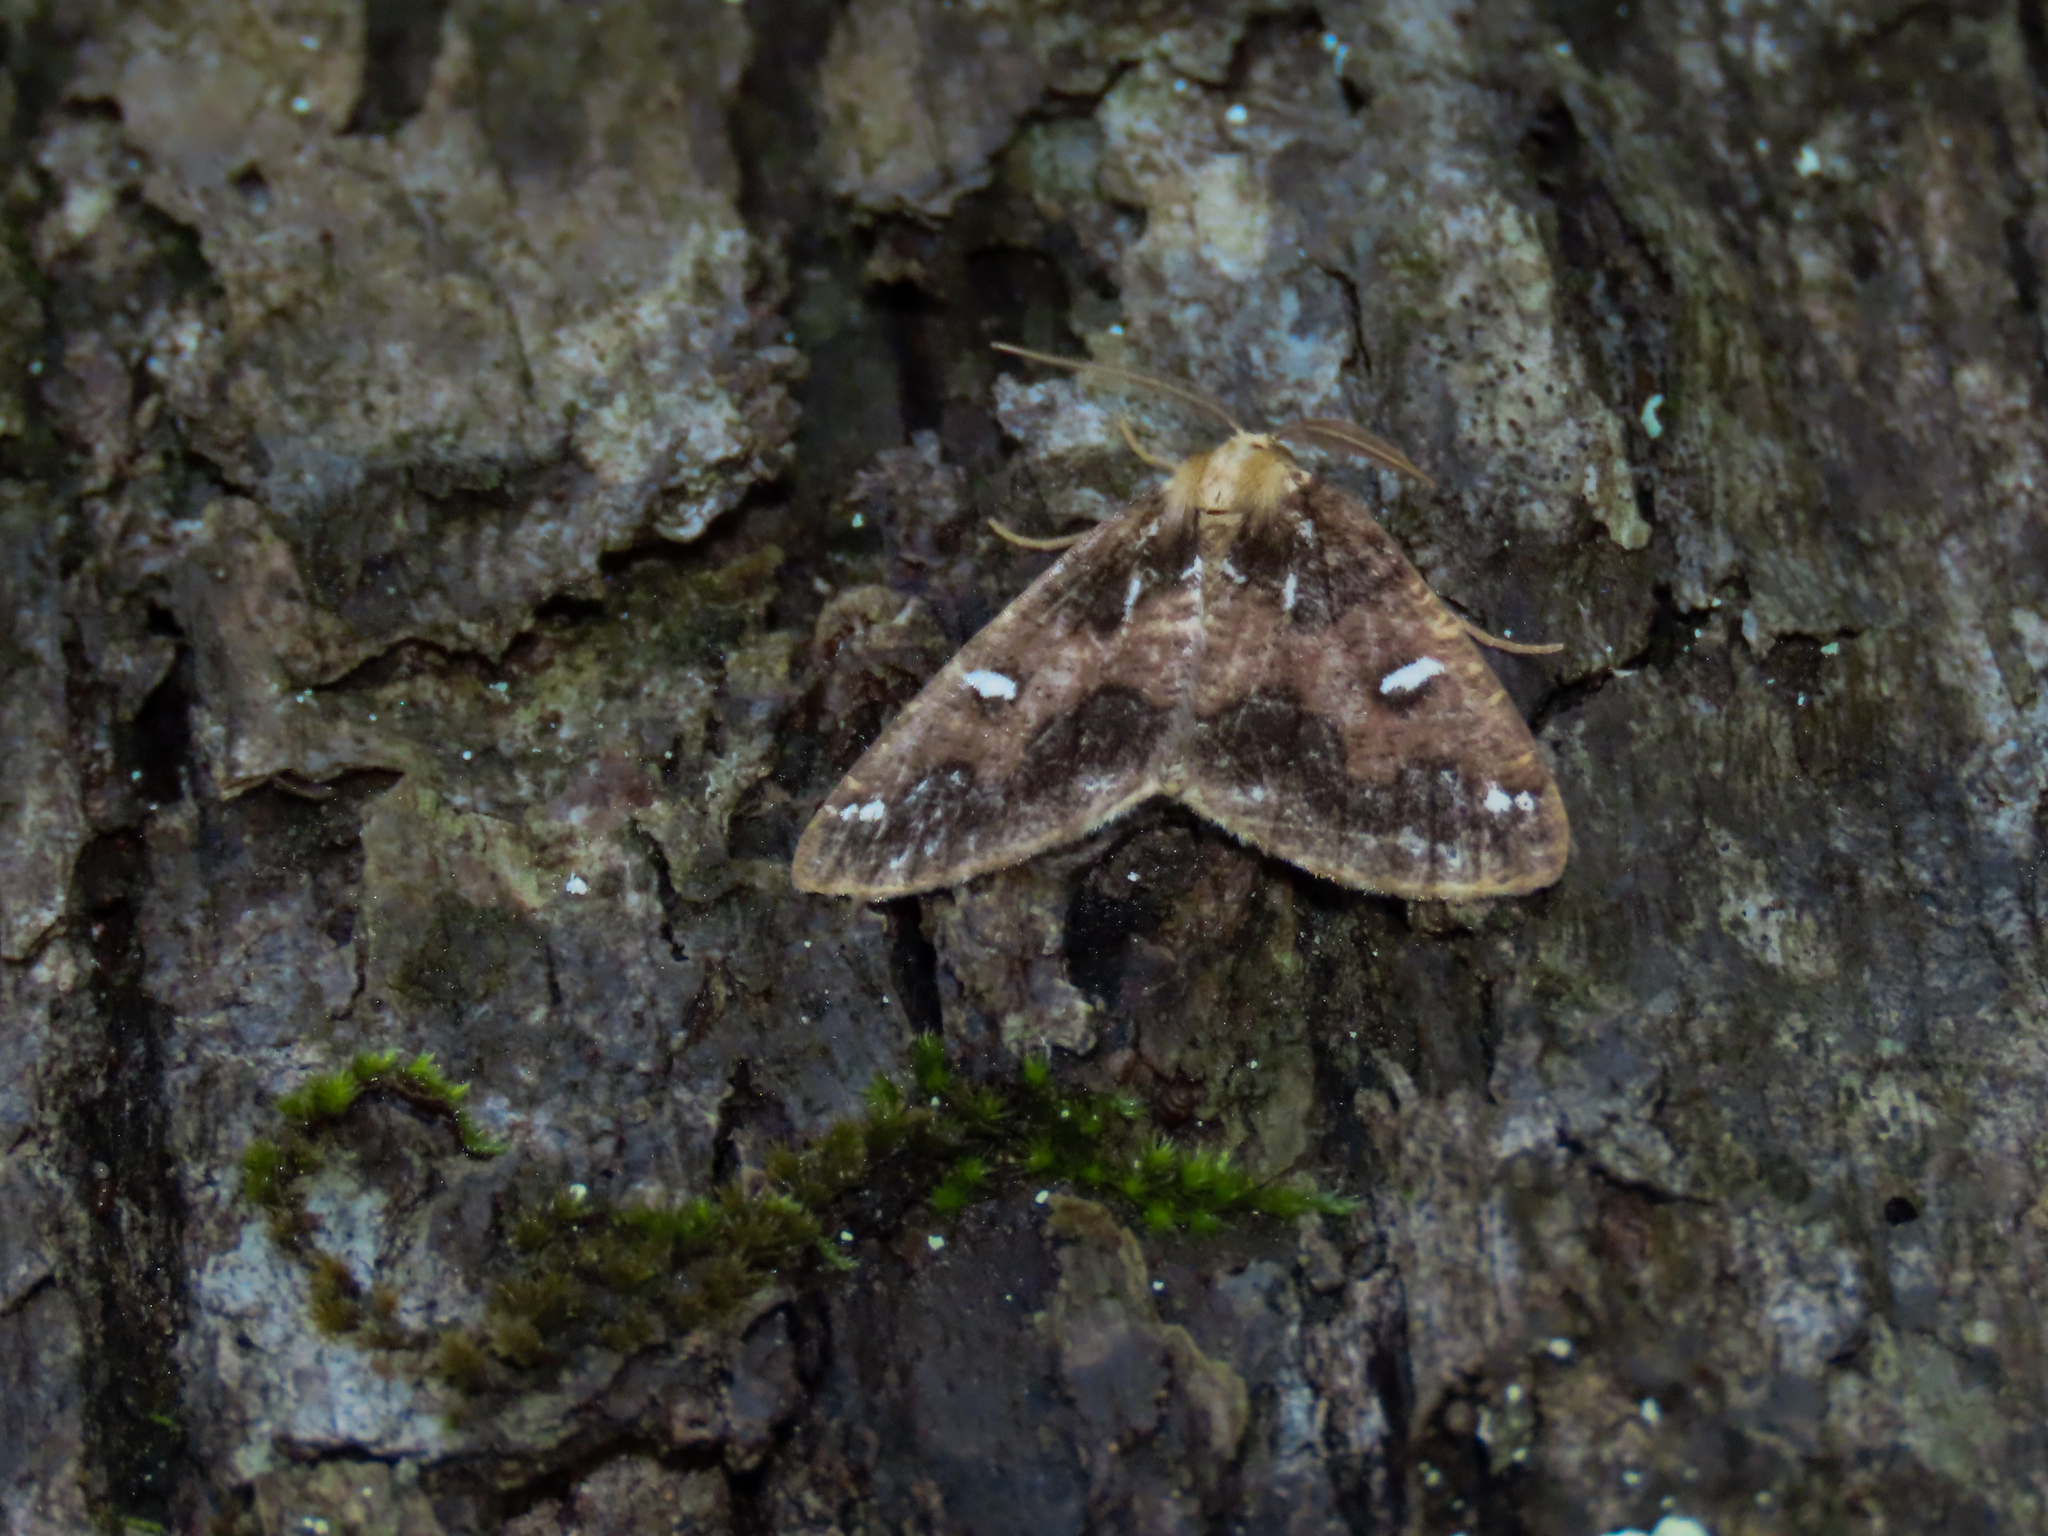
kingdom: Animalia
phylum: Arthropoda
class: Insecta
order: Lepidoptera
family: Geometridae
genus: Caripeta
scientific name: Caripeta divisata
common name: Gray spruce looper
